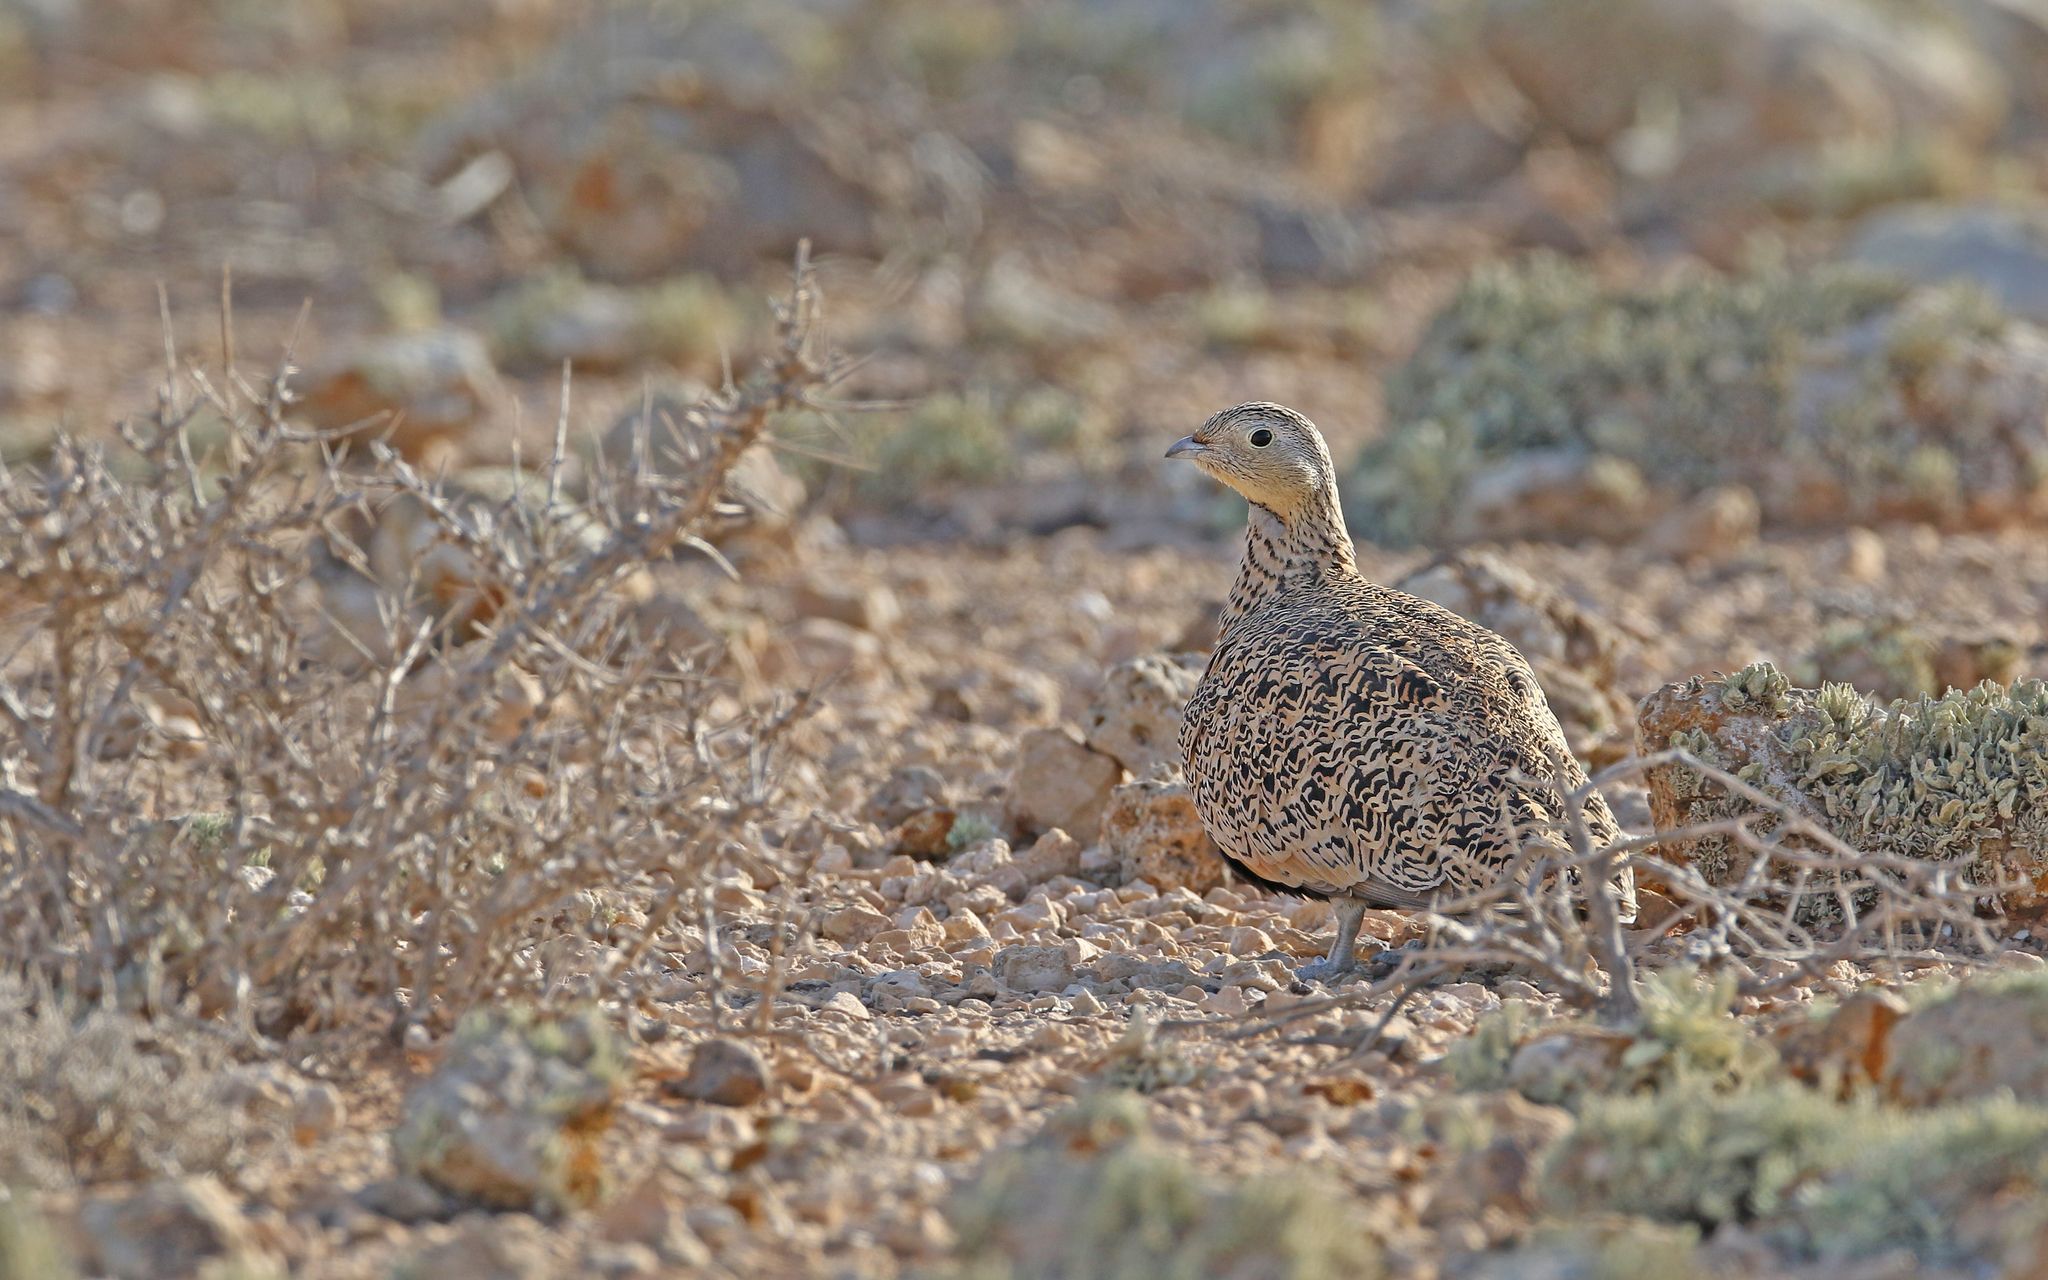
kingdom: Animalia
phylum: Chordata
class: Aves
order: Pteroclidiformes
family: Pteroclididae
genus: Pterocles
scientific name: Pterocles orientalis
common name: Black-bellied sandgrouse
